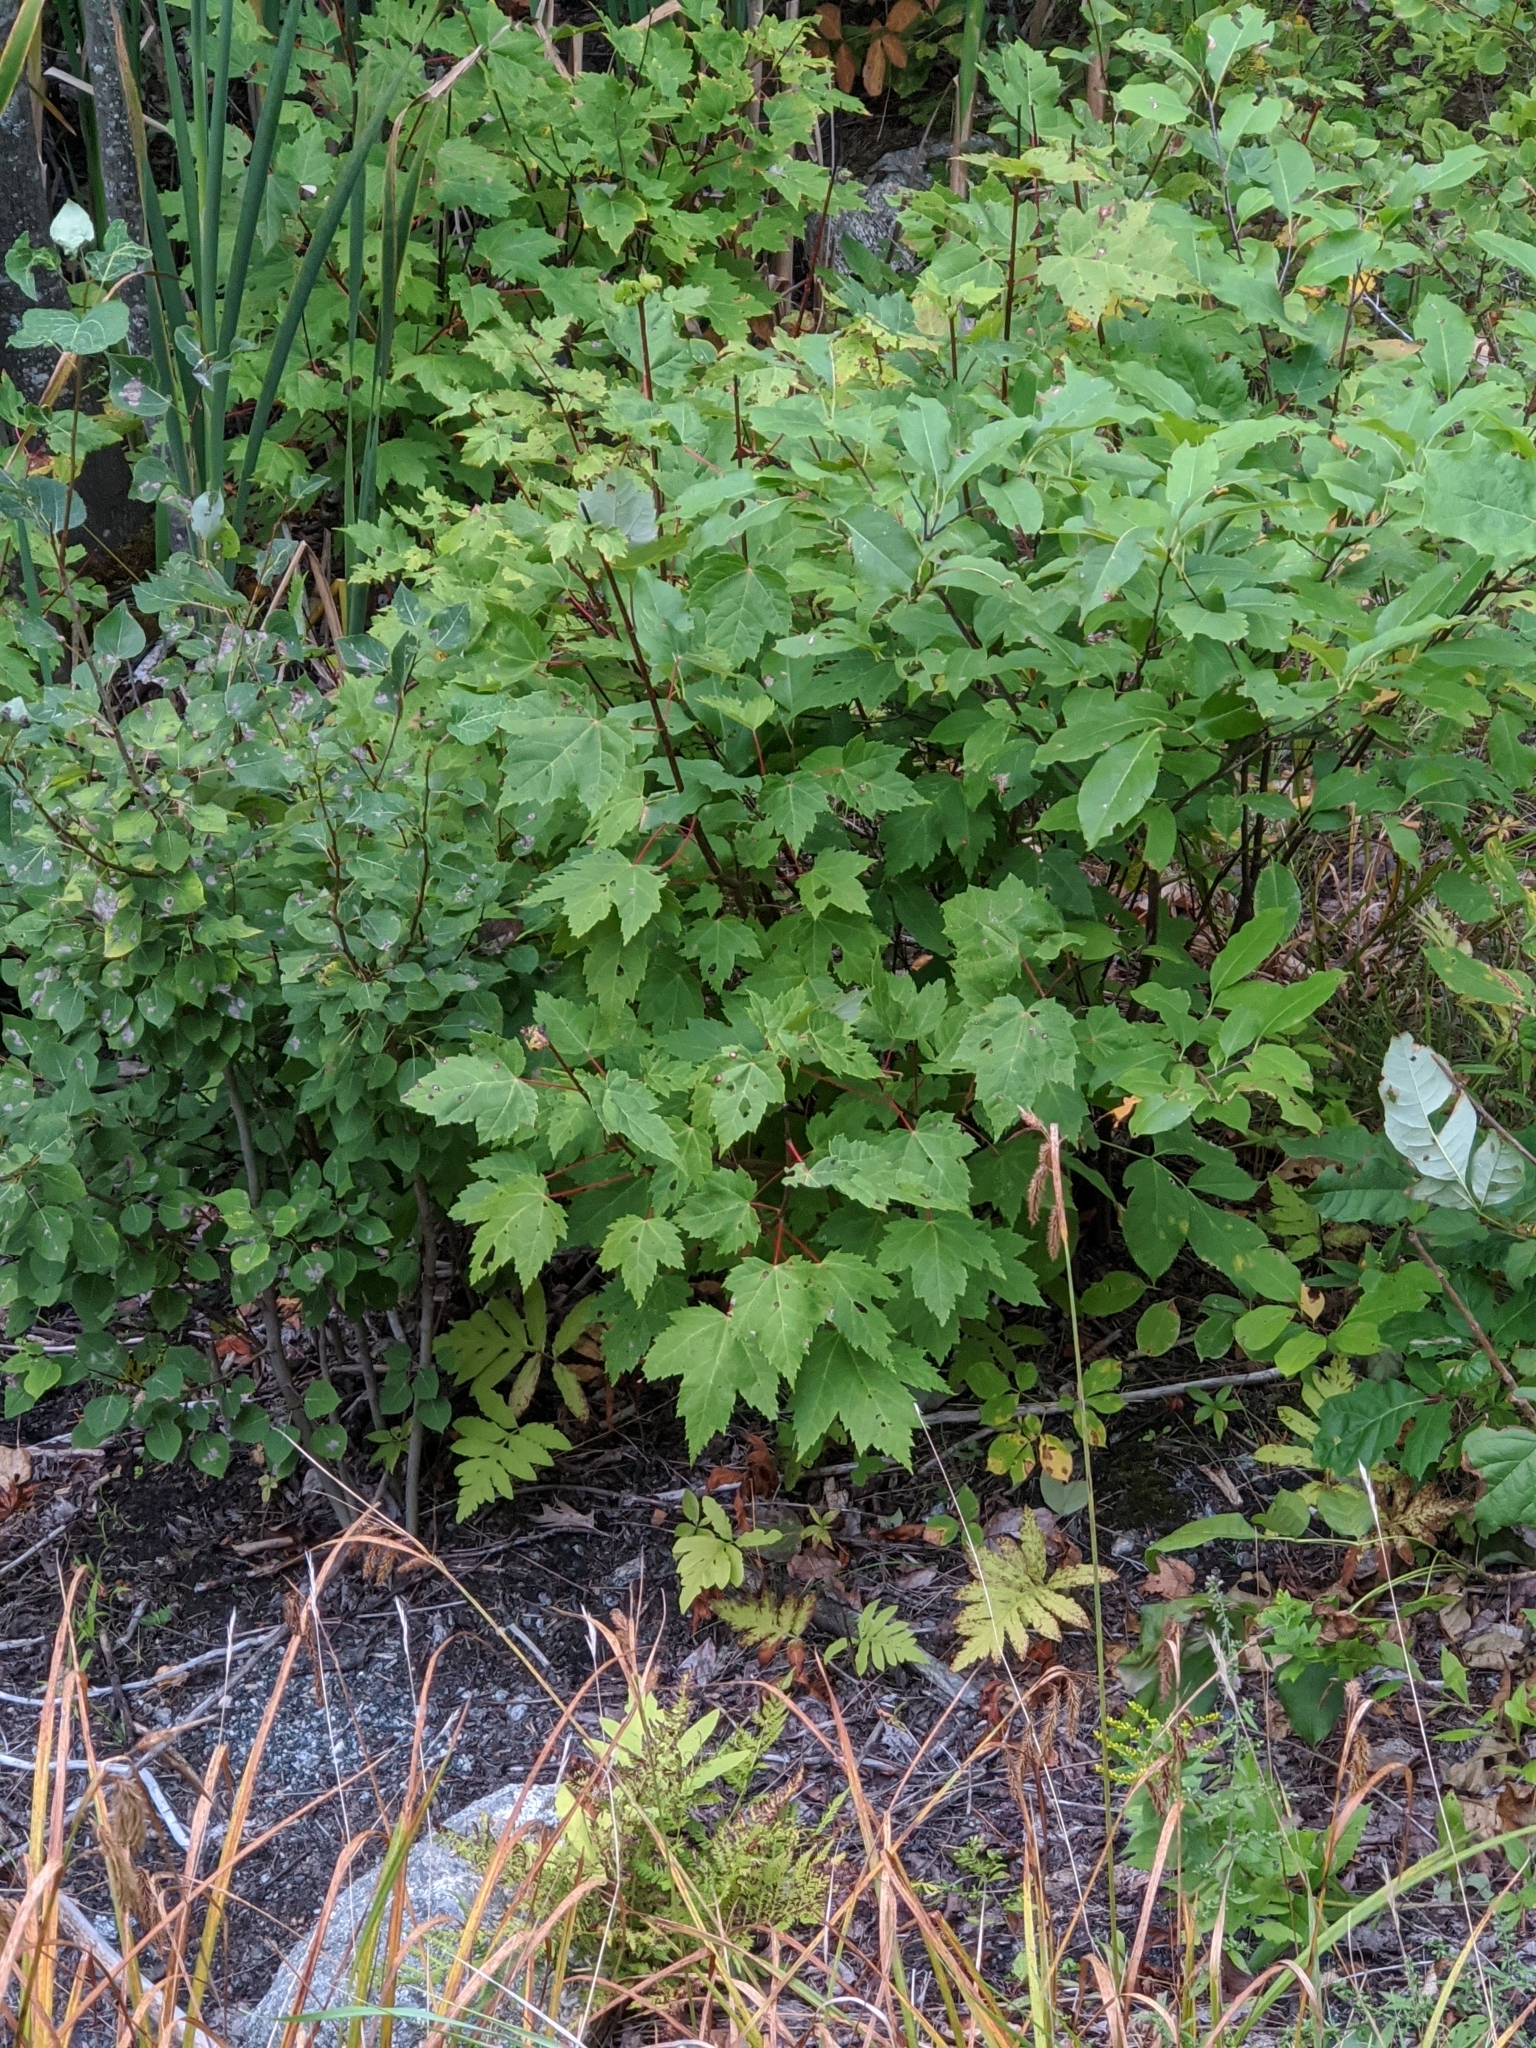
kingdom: Plantae
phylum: Tracheophyta
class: Magnoliopsida
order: Sapindales
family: Sapindaceae
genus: Acer
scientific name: Acer rubrum
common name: Red maple
